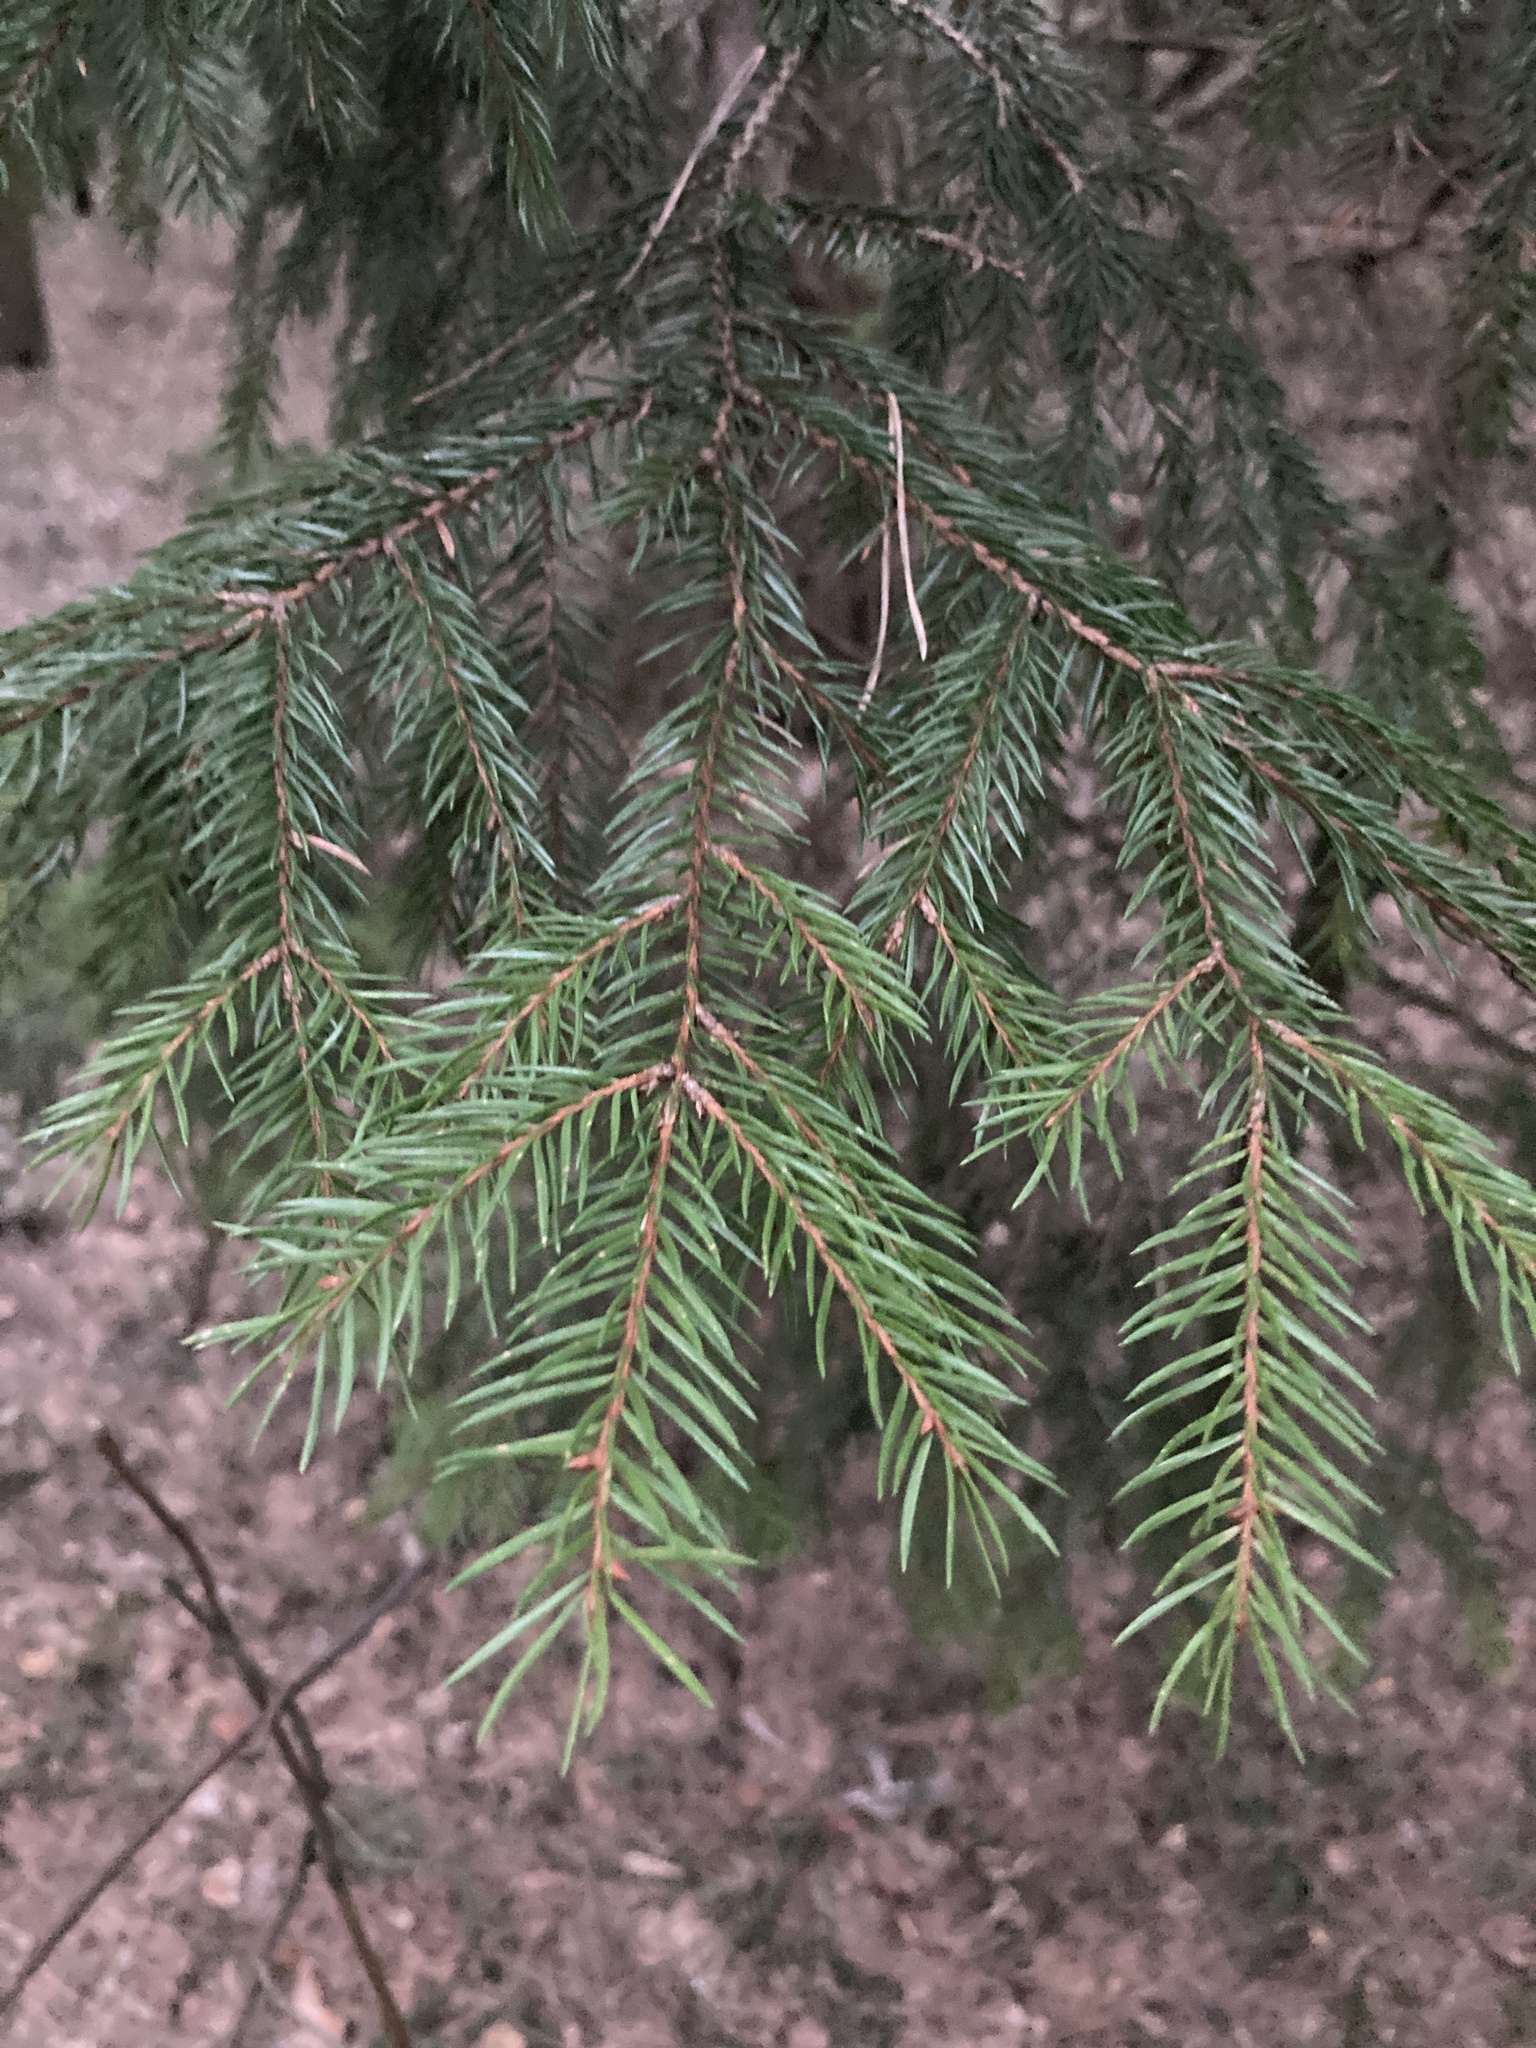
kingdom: Plantae
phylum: Tracheophyta
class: Pinopsida
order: Pinales
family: Pinaceae
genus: Picea
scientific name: Picea abies
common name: Norway spruce
